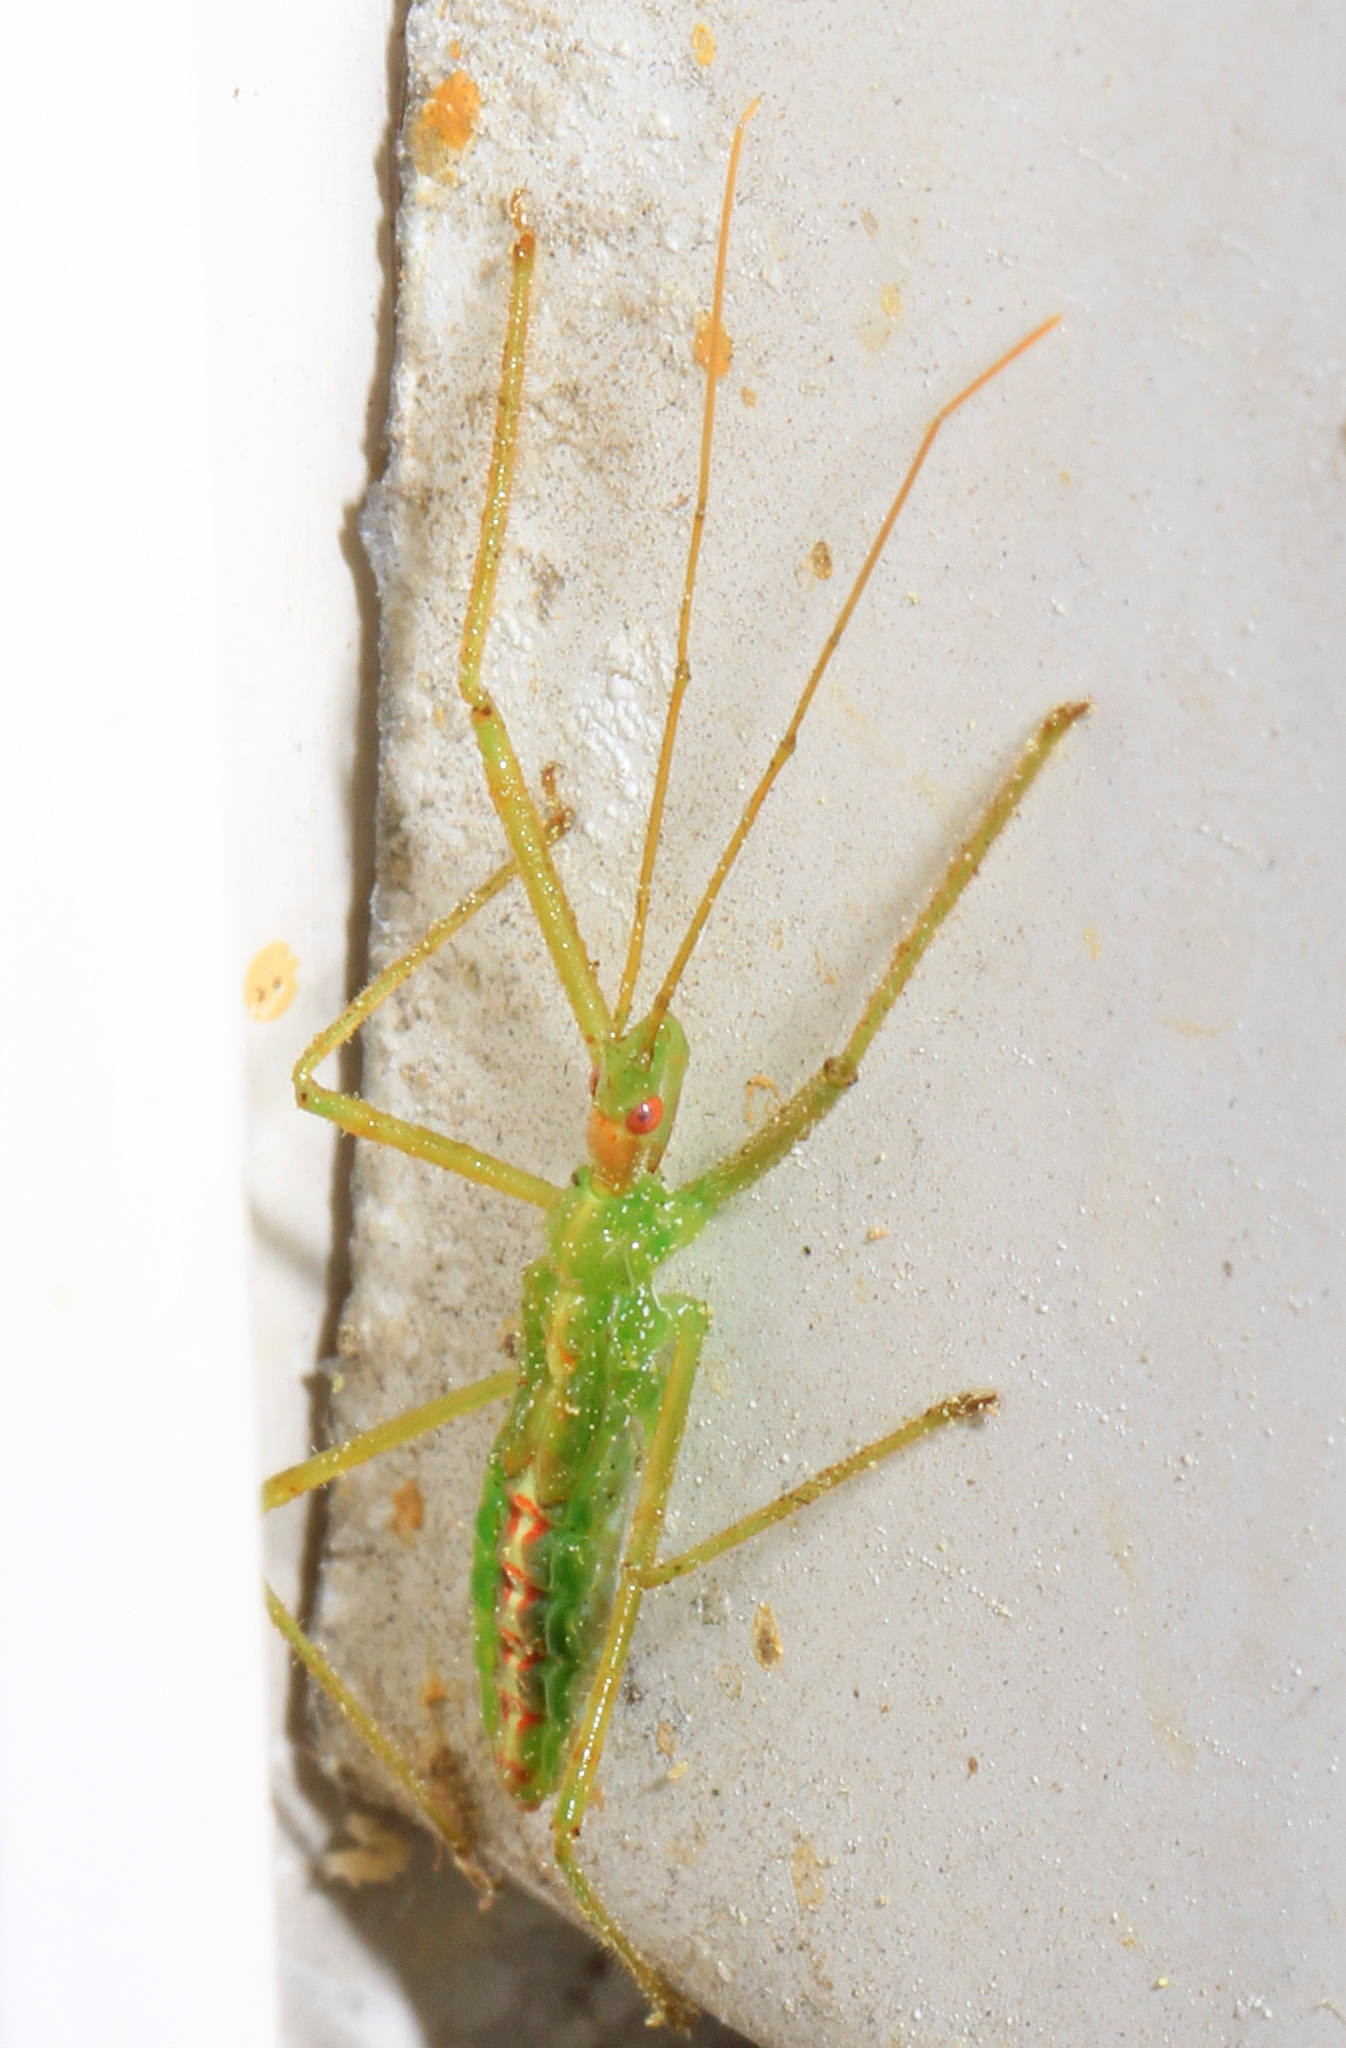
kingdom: Animalia
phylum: Arthropoda
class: Insecta
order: Hemiptera
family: Reduviidae
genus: Zelus
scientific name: Zelus luridus
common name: Pale green assassin bug
